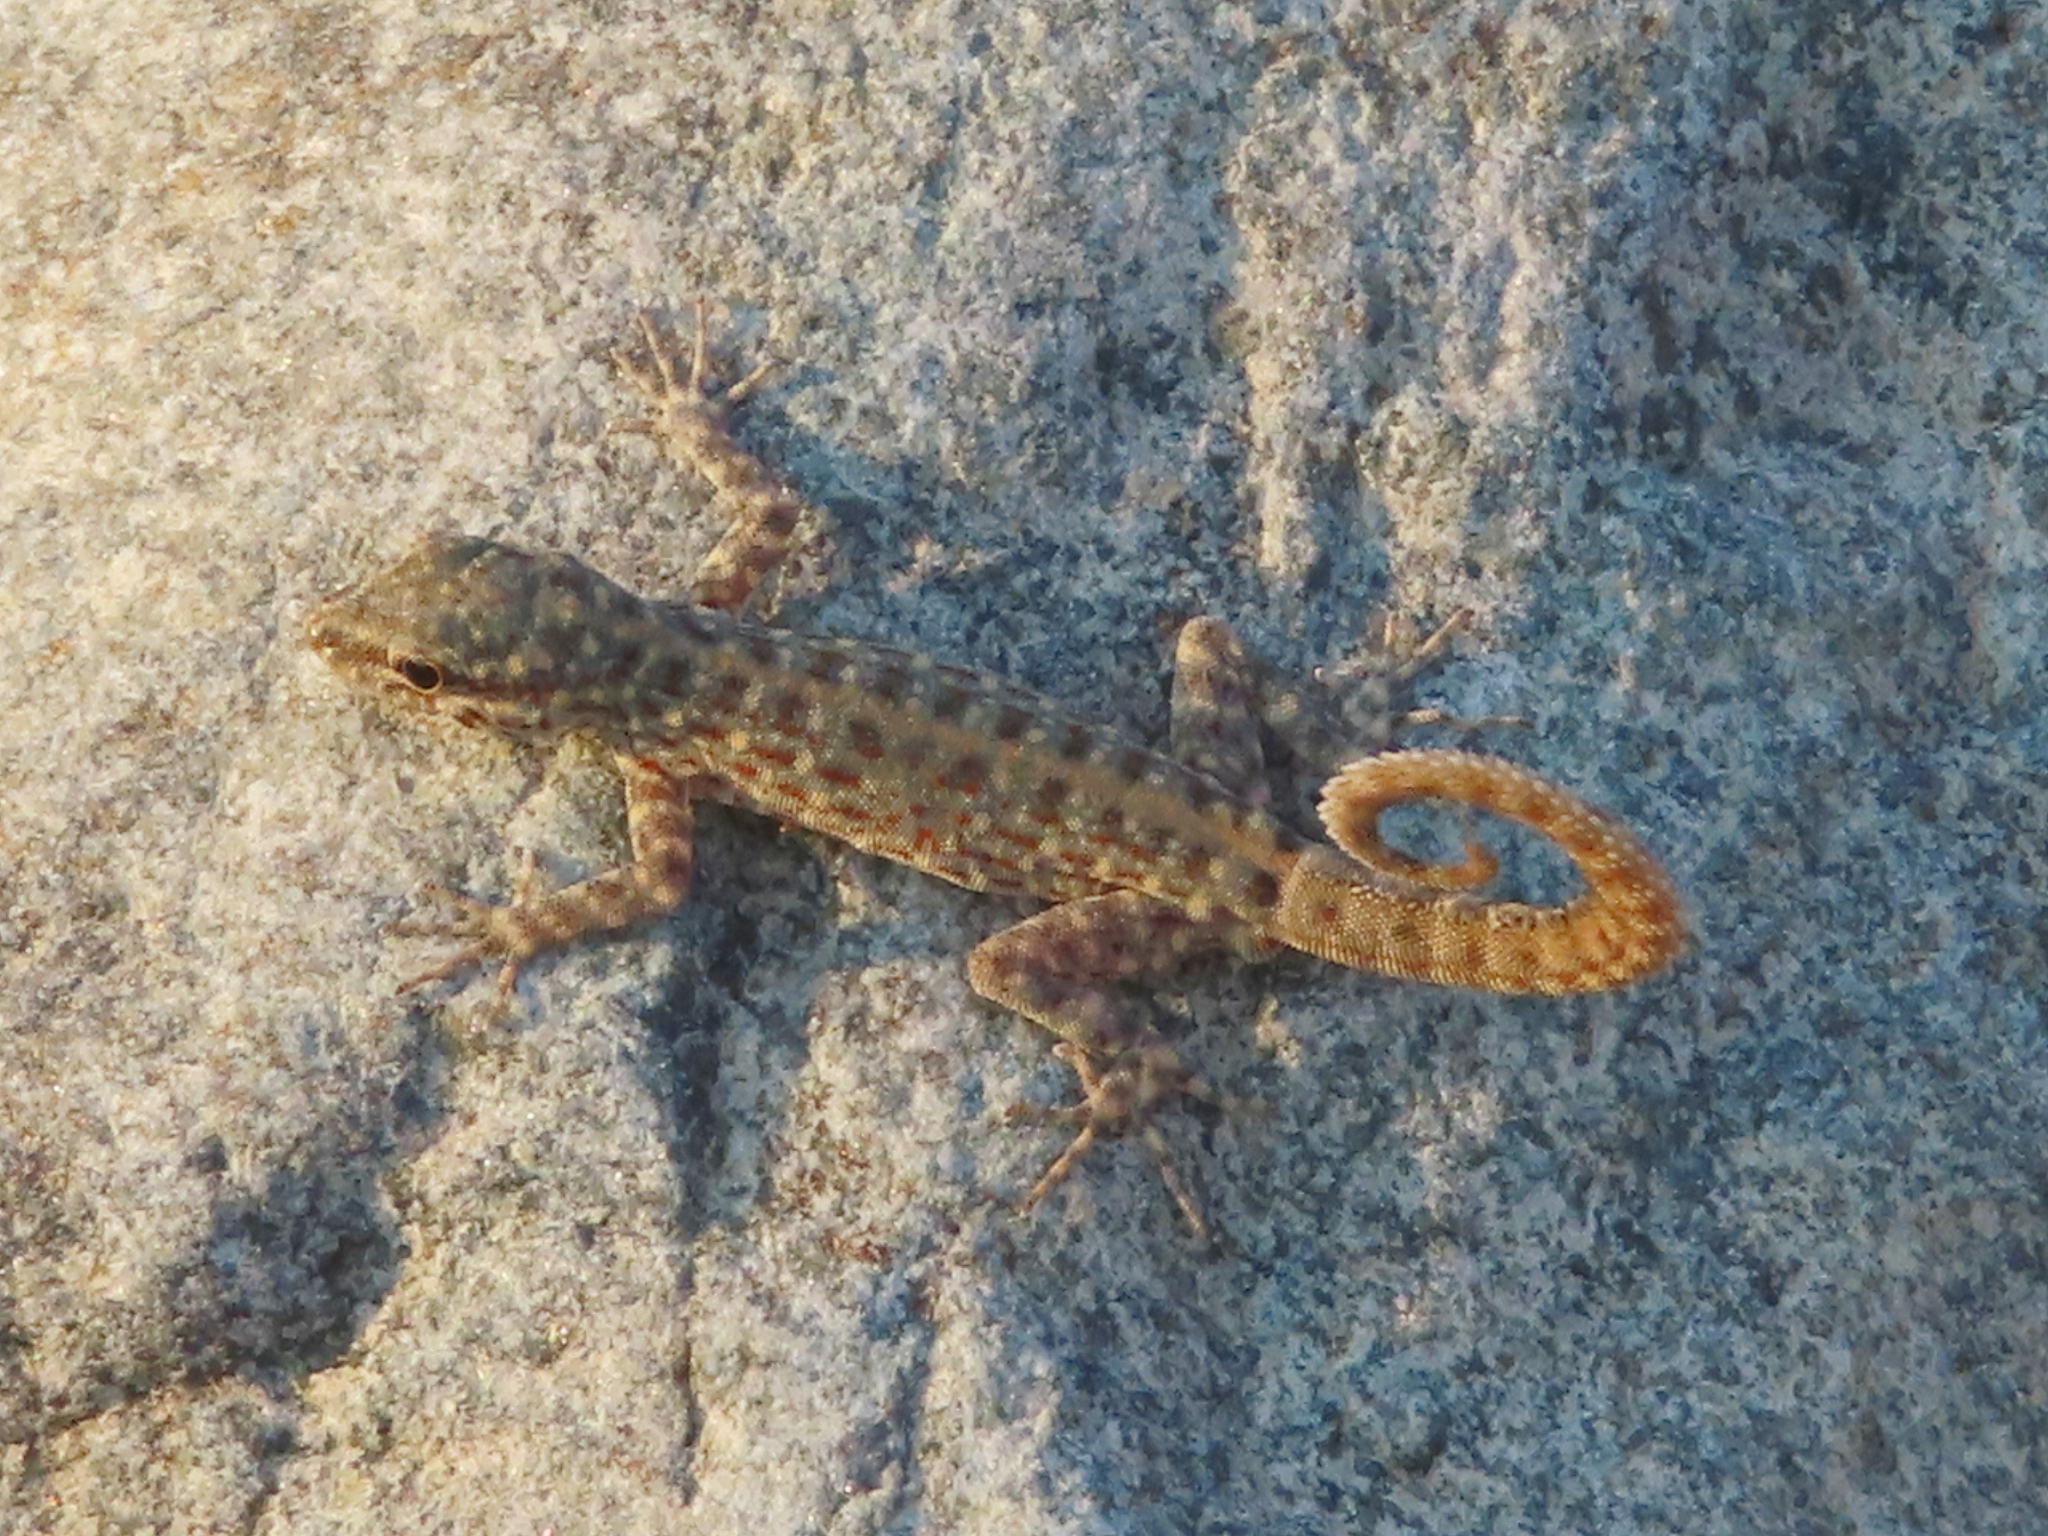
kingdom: Animalia
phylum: Chordata
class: Squamata
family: Sphaerodactylidae
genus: Pristurus
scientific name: Pristurus rupestris
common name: Blanford’s semaphore gecko
